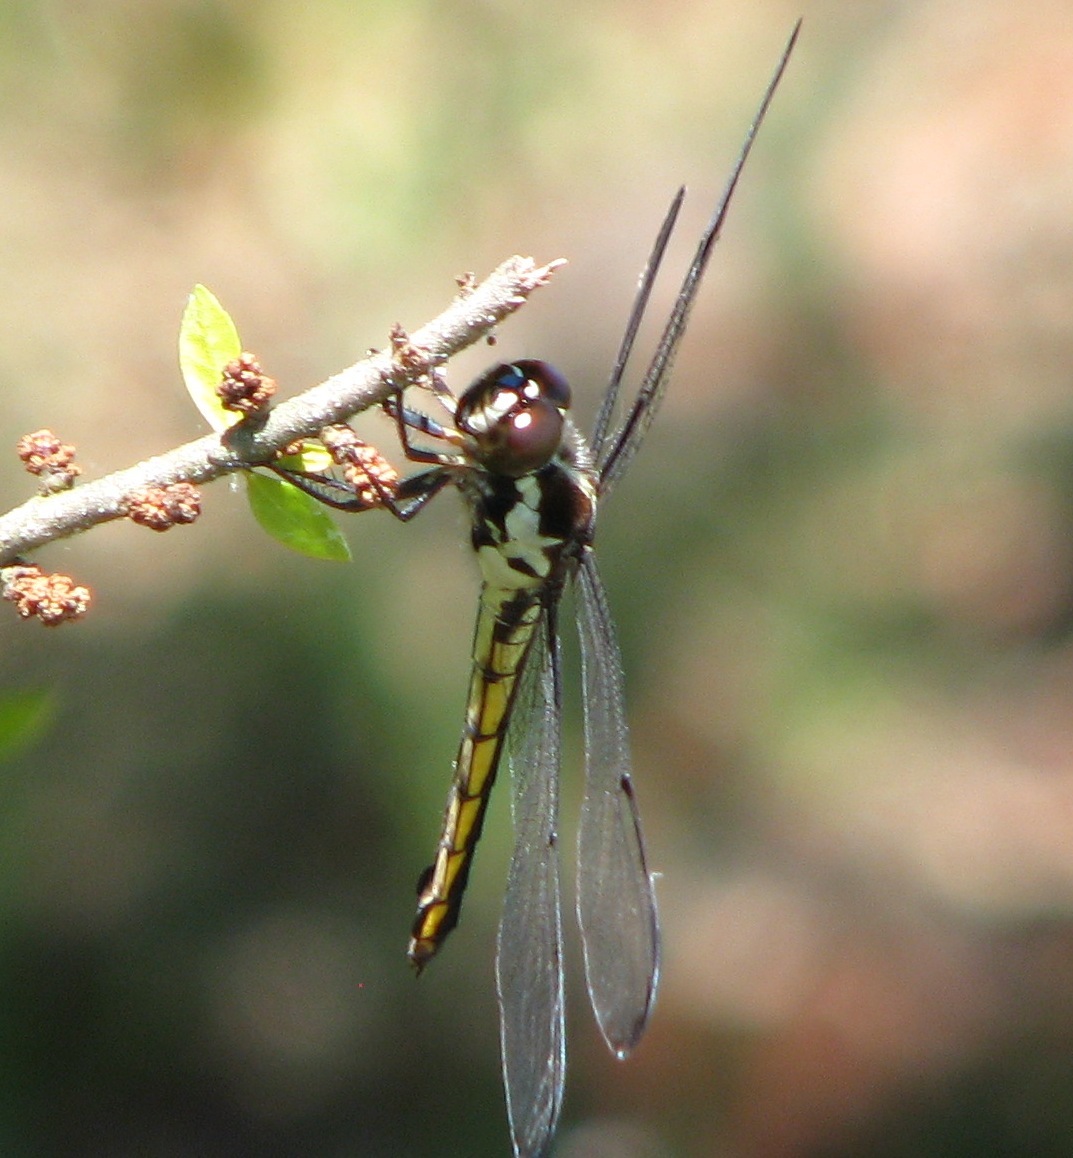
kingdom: Animalia
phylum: Arthropoda
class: Insecta
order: Odonata
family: Libellulidae
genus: Libellula
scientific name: Libellula incesta
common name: Slaty skimmer
